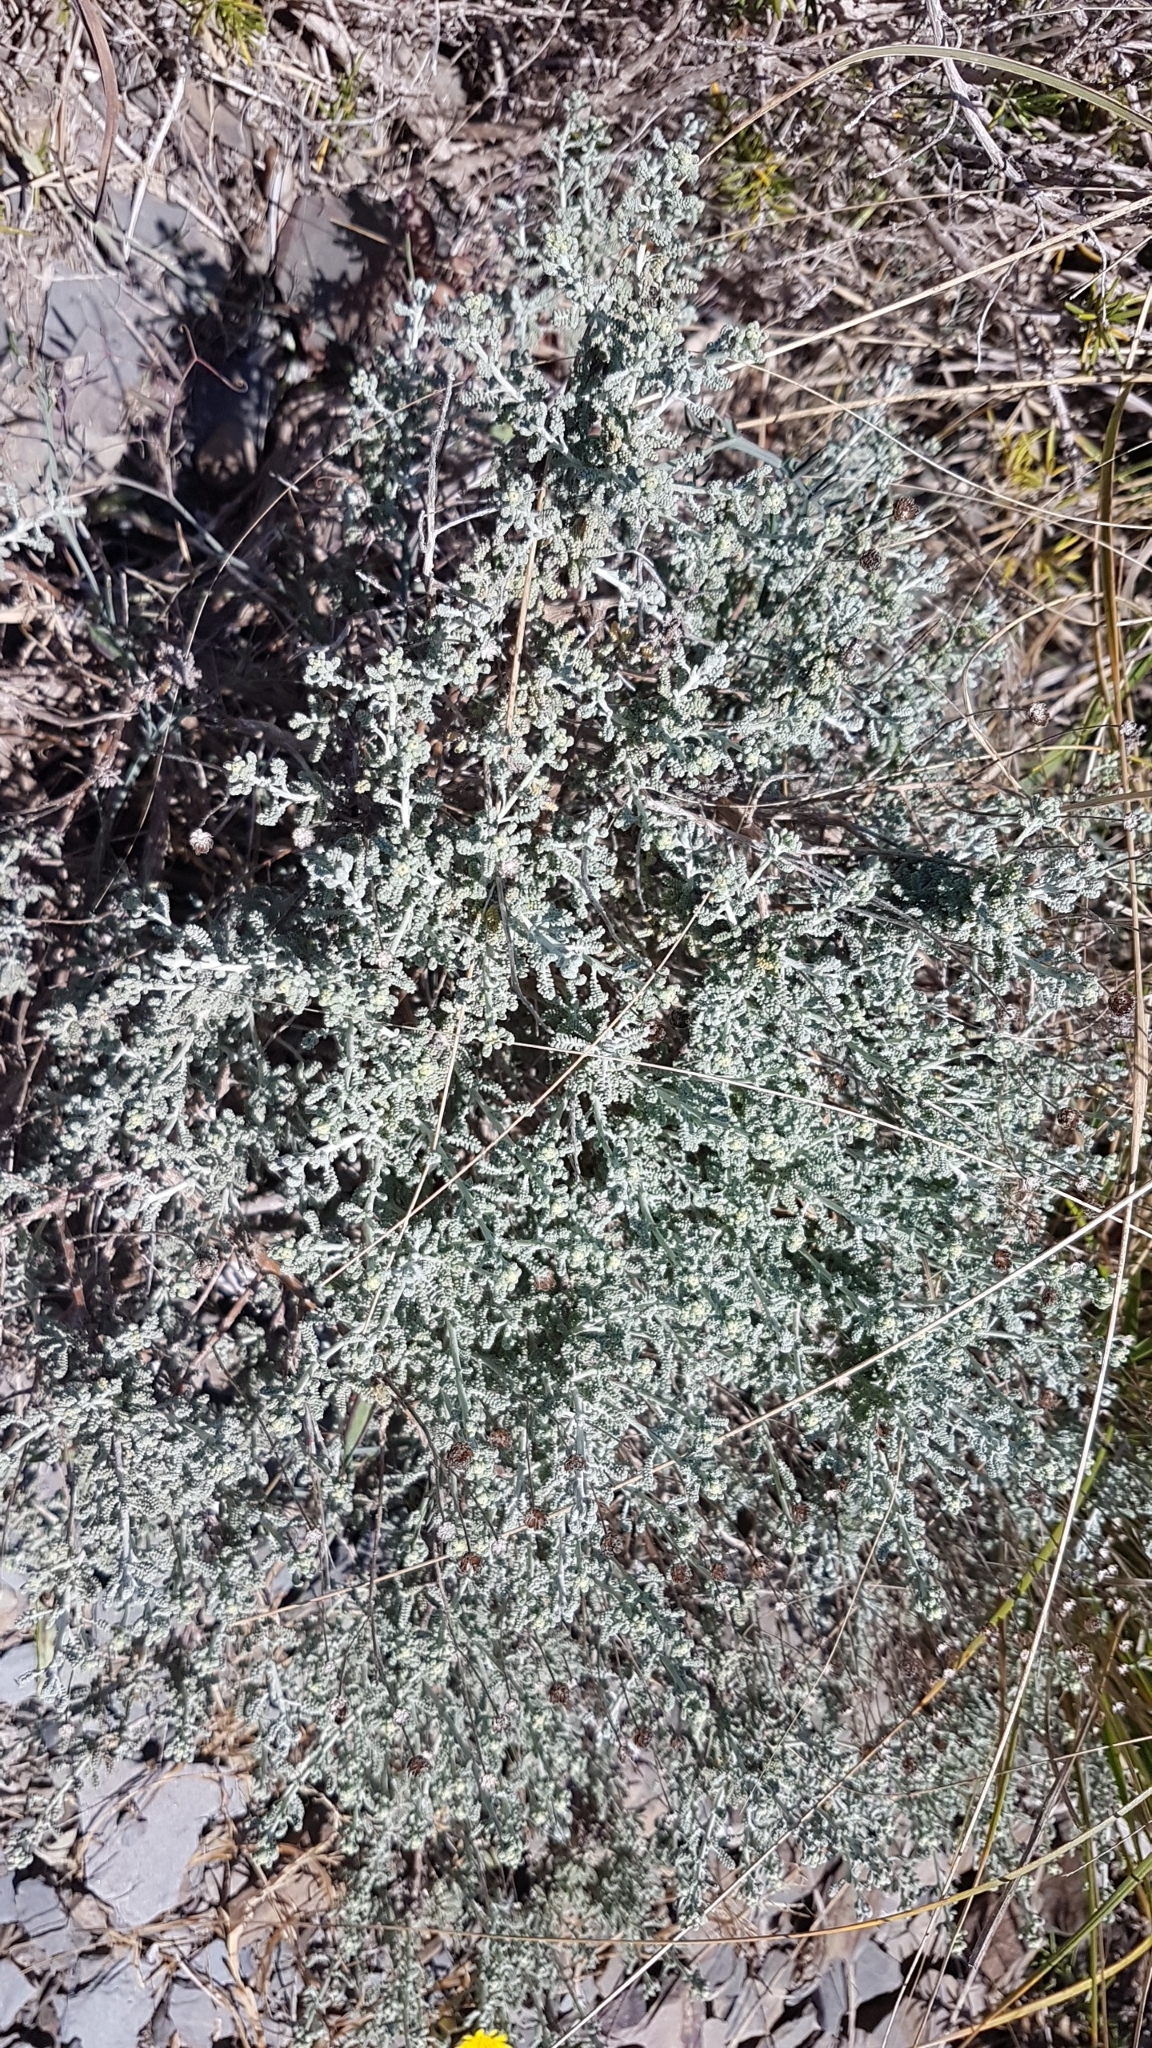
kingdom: Plantae
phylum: Tracheophyta
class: Magnoliopsida
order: Asterales
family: Asteraceae
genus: Santolina
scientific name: Santolina magonica
